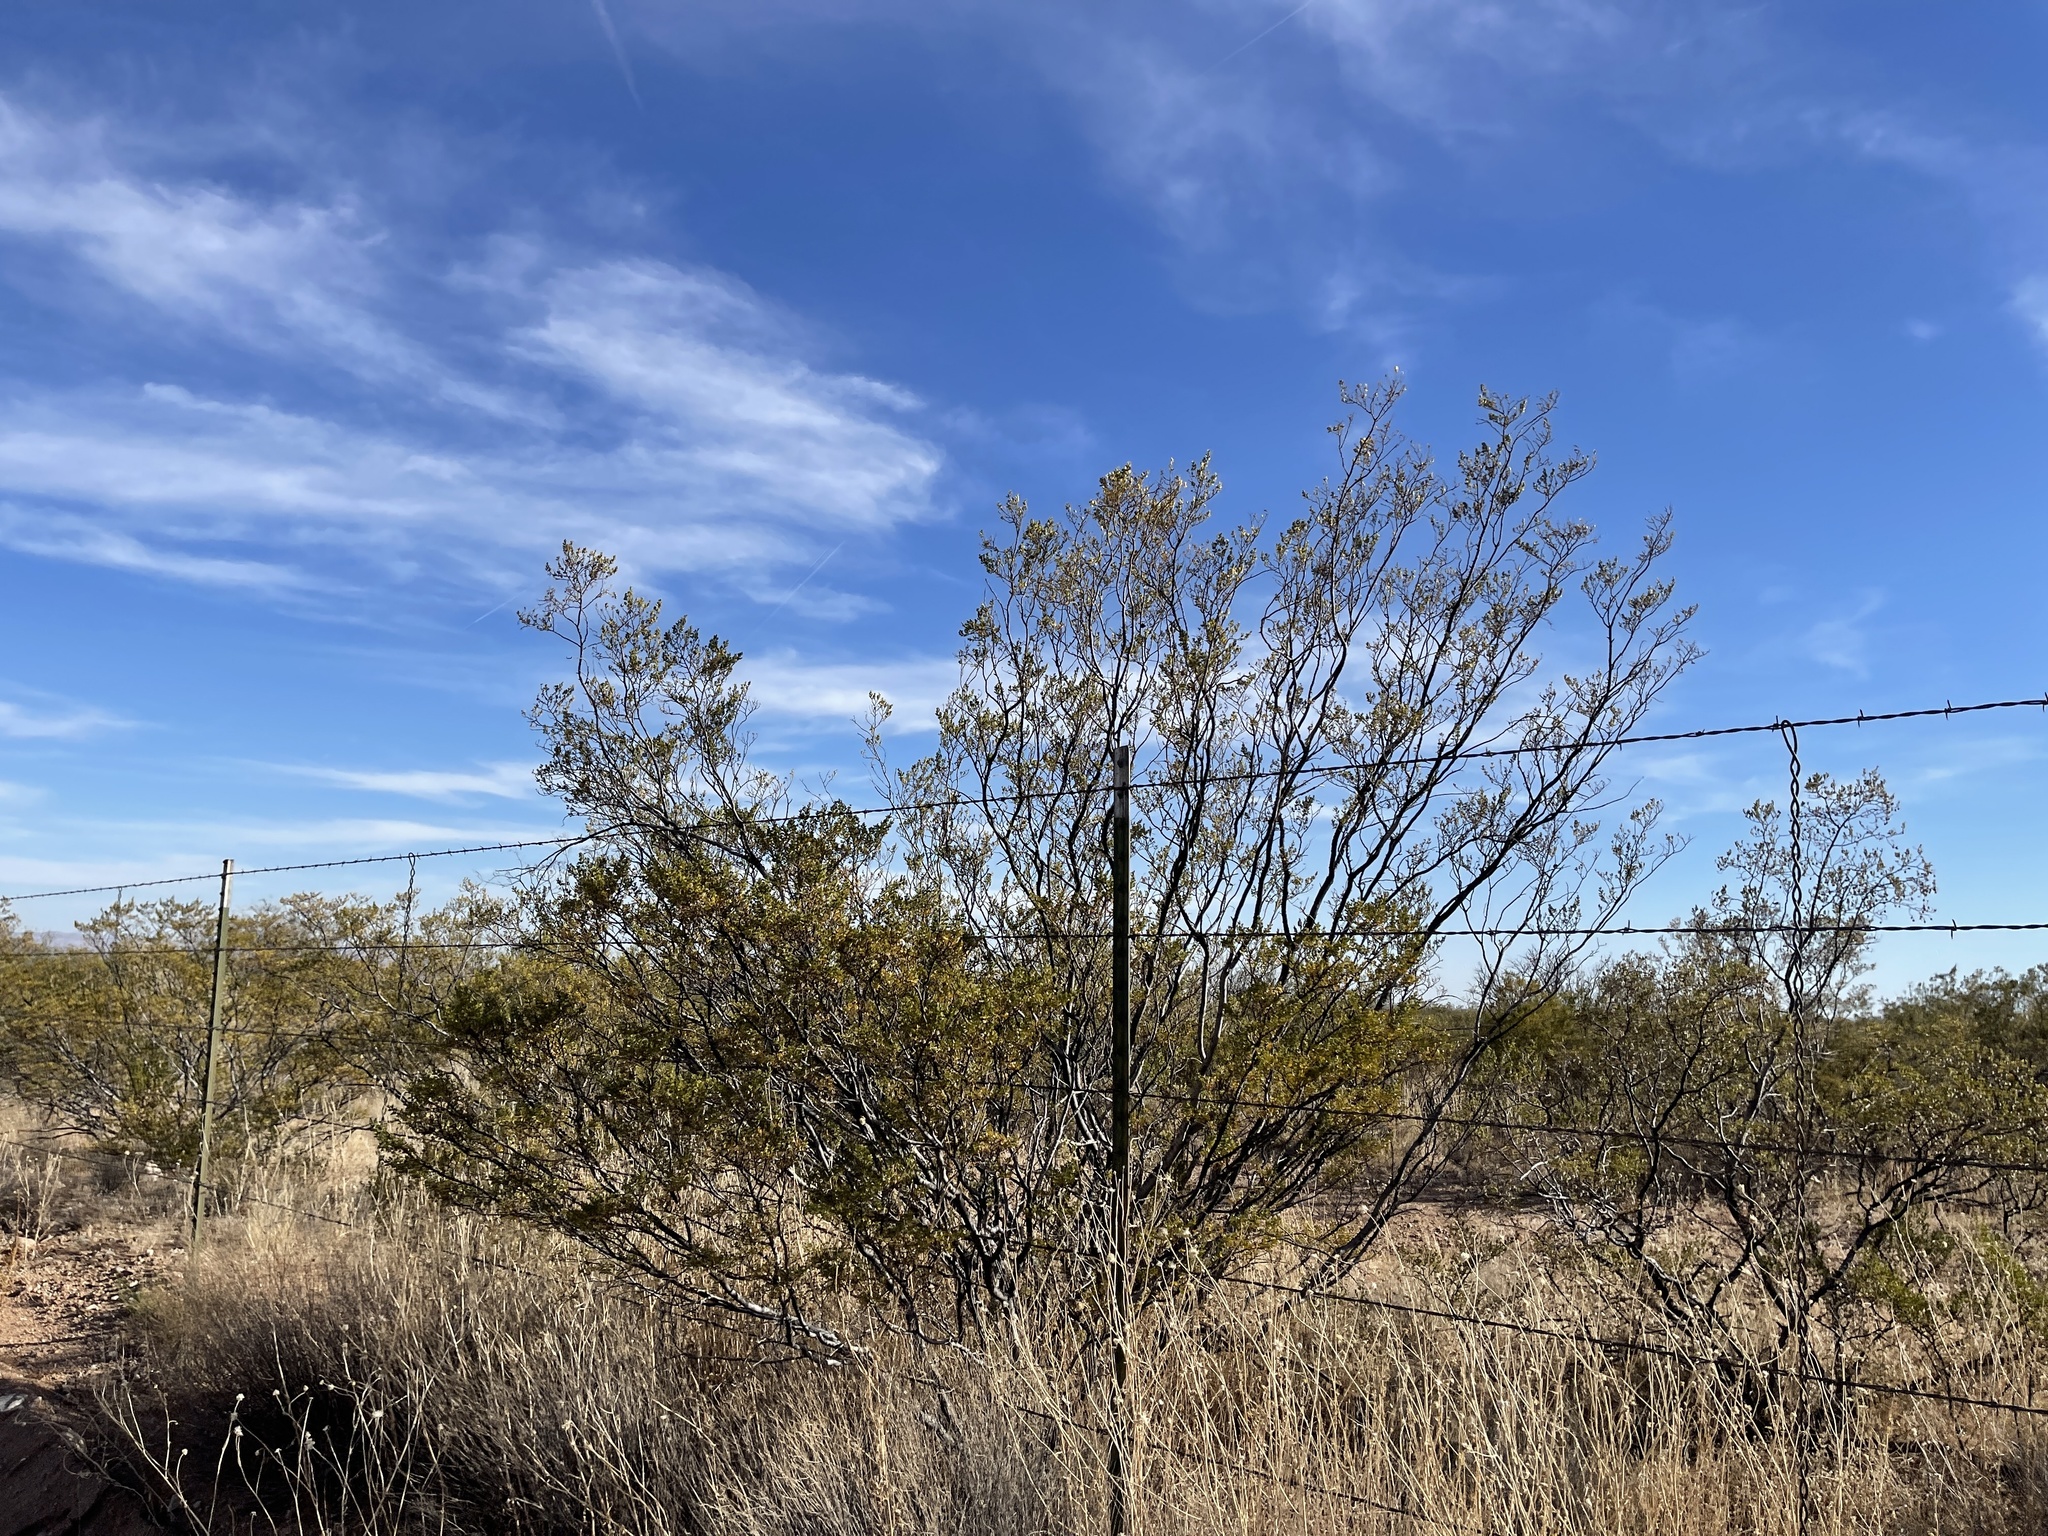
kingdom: Plantae
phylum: Tracheophyta
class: Magnoliopsida
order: Zygophyllales
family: Zygophyllaceae
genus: Larrea
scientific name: Larrea tridentata
